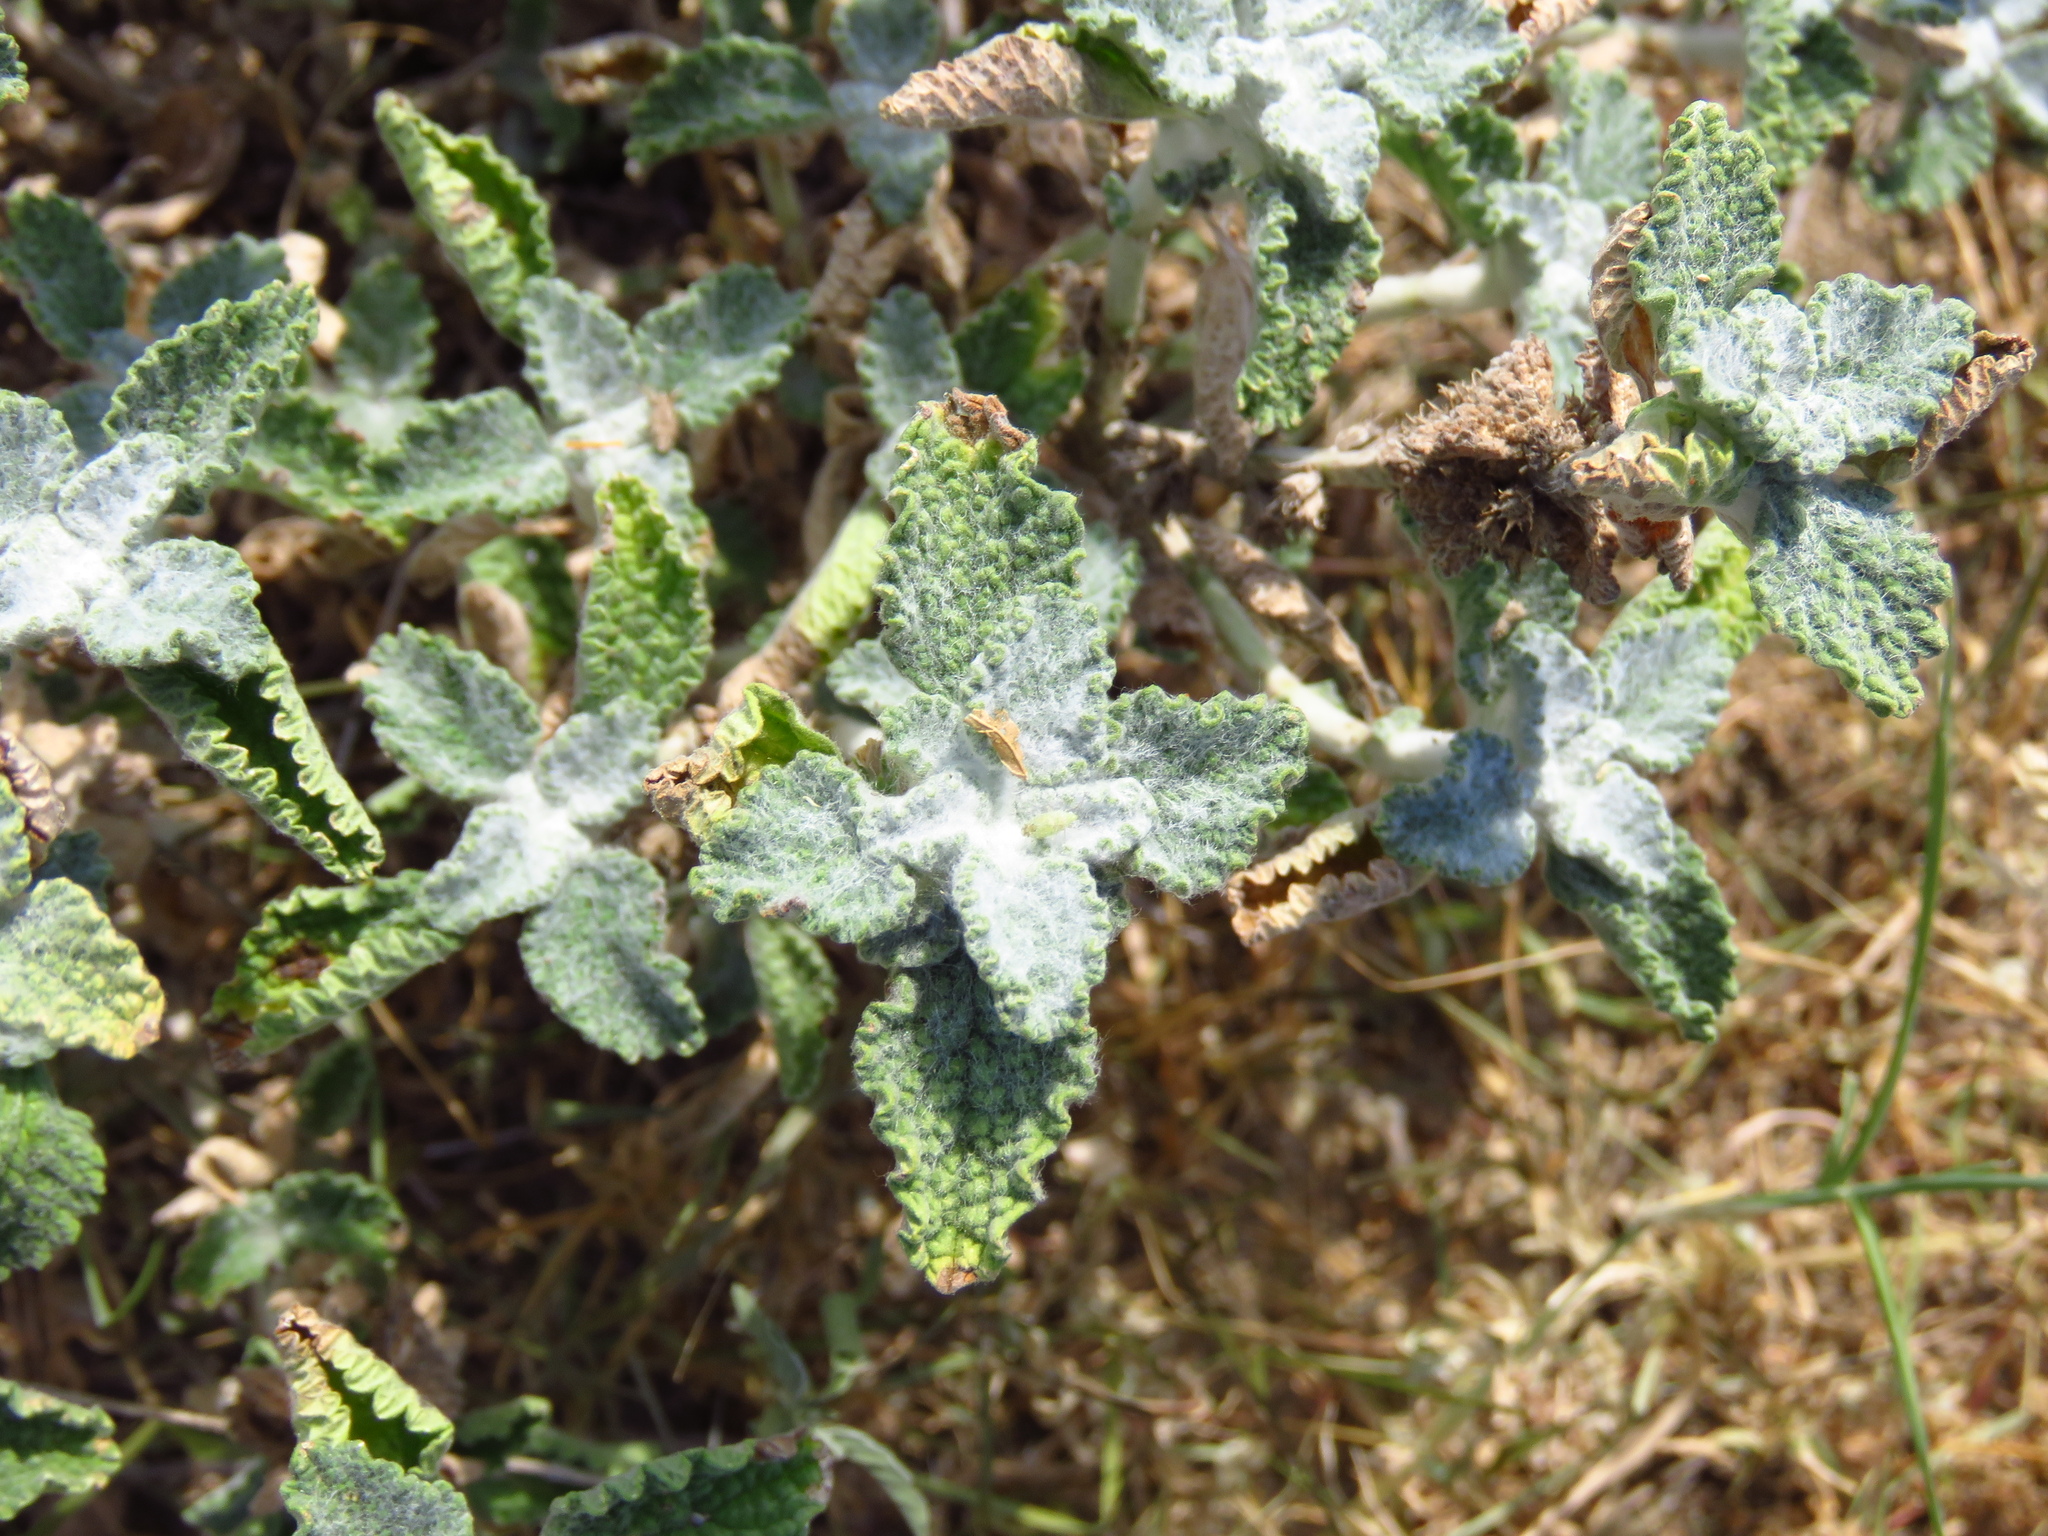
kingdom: Plantae
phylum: Tracheophyta
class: Magnoliopsida
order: Lamiales
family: Lamiaceae
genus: Marrubium
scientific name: Marrubium vulgare
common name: Horehound
